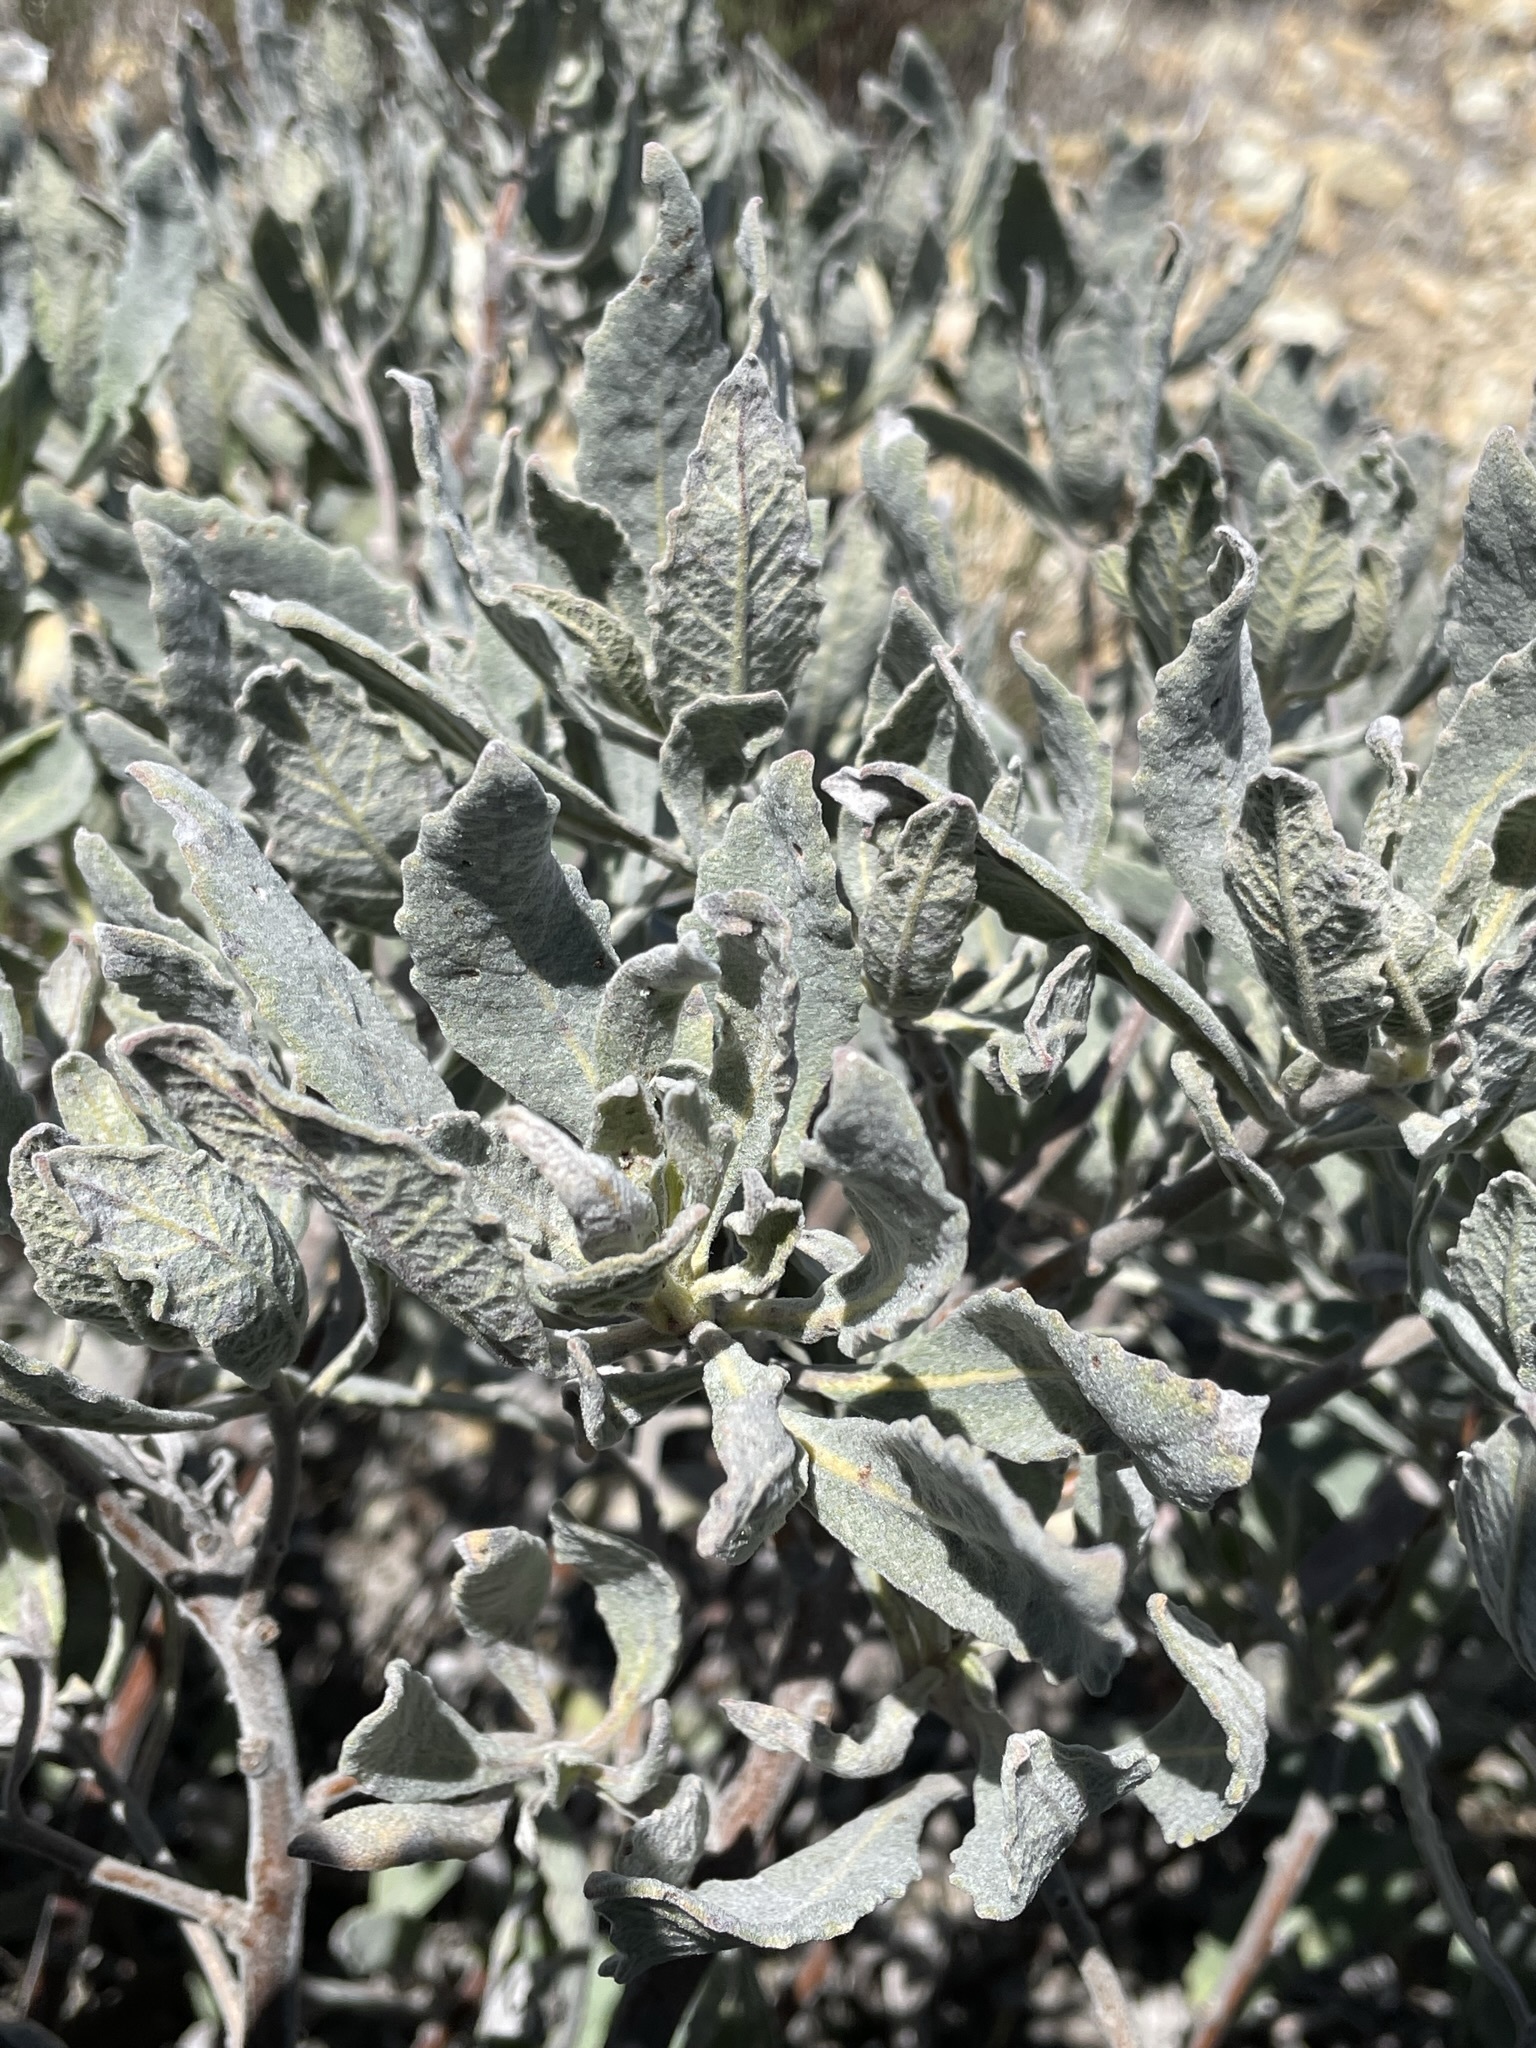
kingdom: Plantae
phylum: Tracheophyta
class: Magnoliopsida
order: Boraginales
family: Namaceae
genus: Eriodictyon
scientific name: Eriodictyon traskiae
